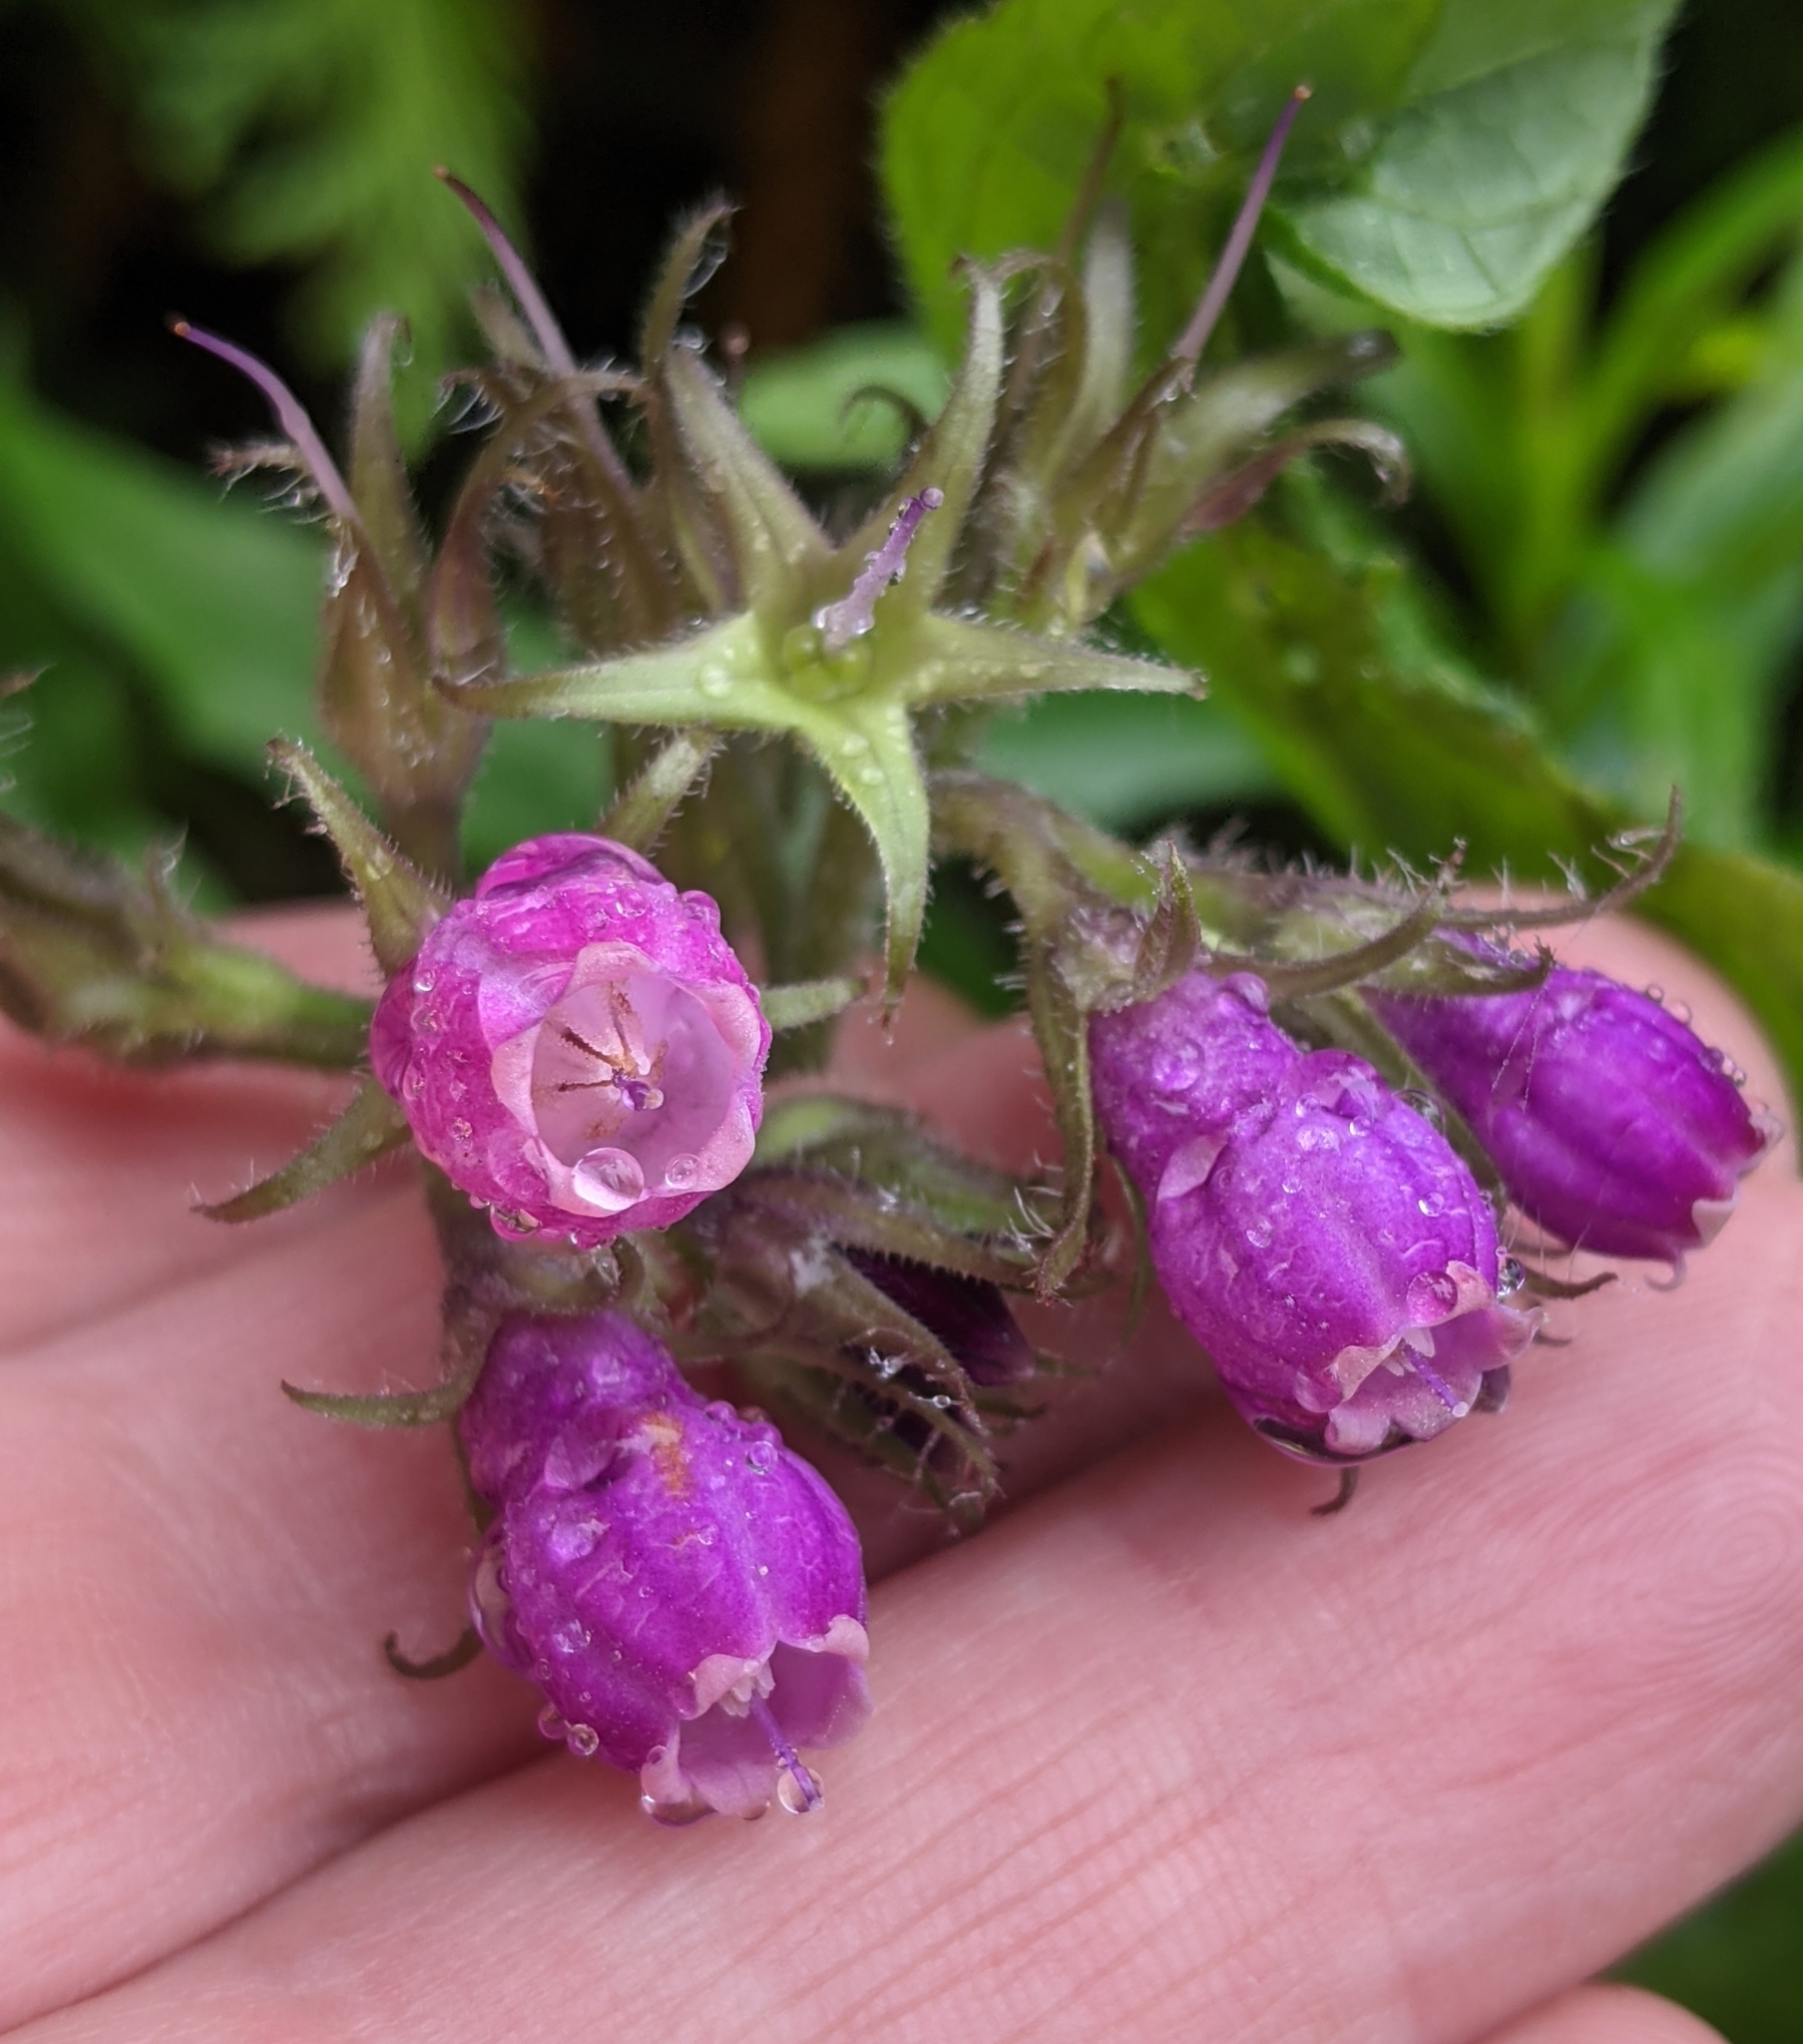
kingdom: Plantae
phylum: Tracheophyta
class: Magnoliopsida
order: Boraginales
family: Boraginaceae
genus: Symphytum
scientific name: Symphytum officinale
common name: Common comfrey
